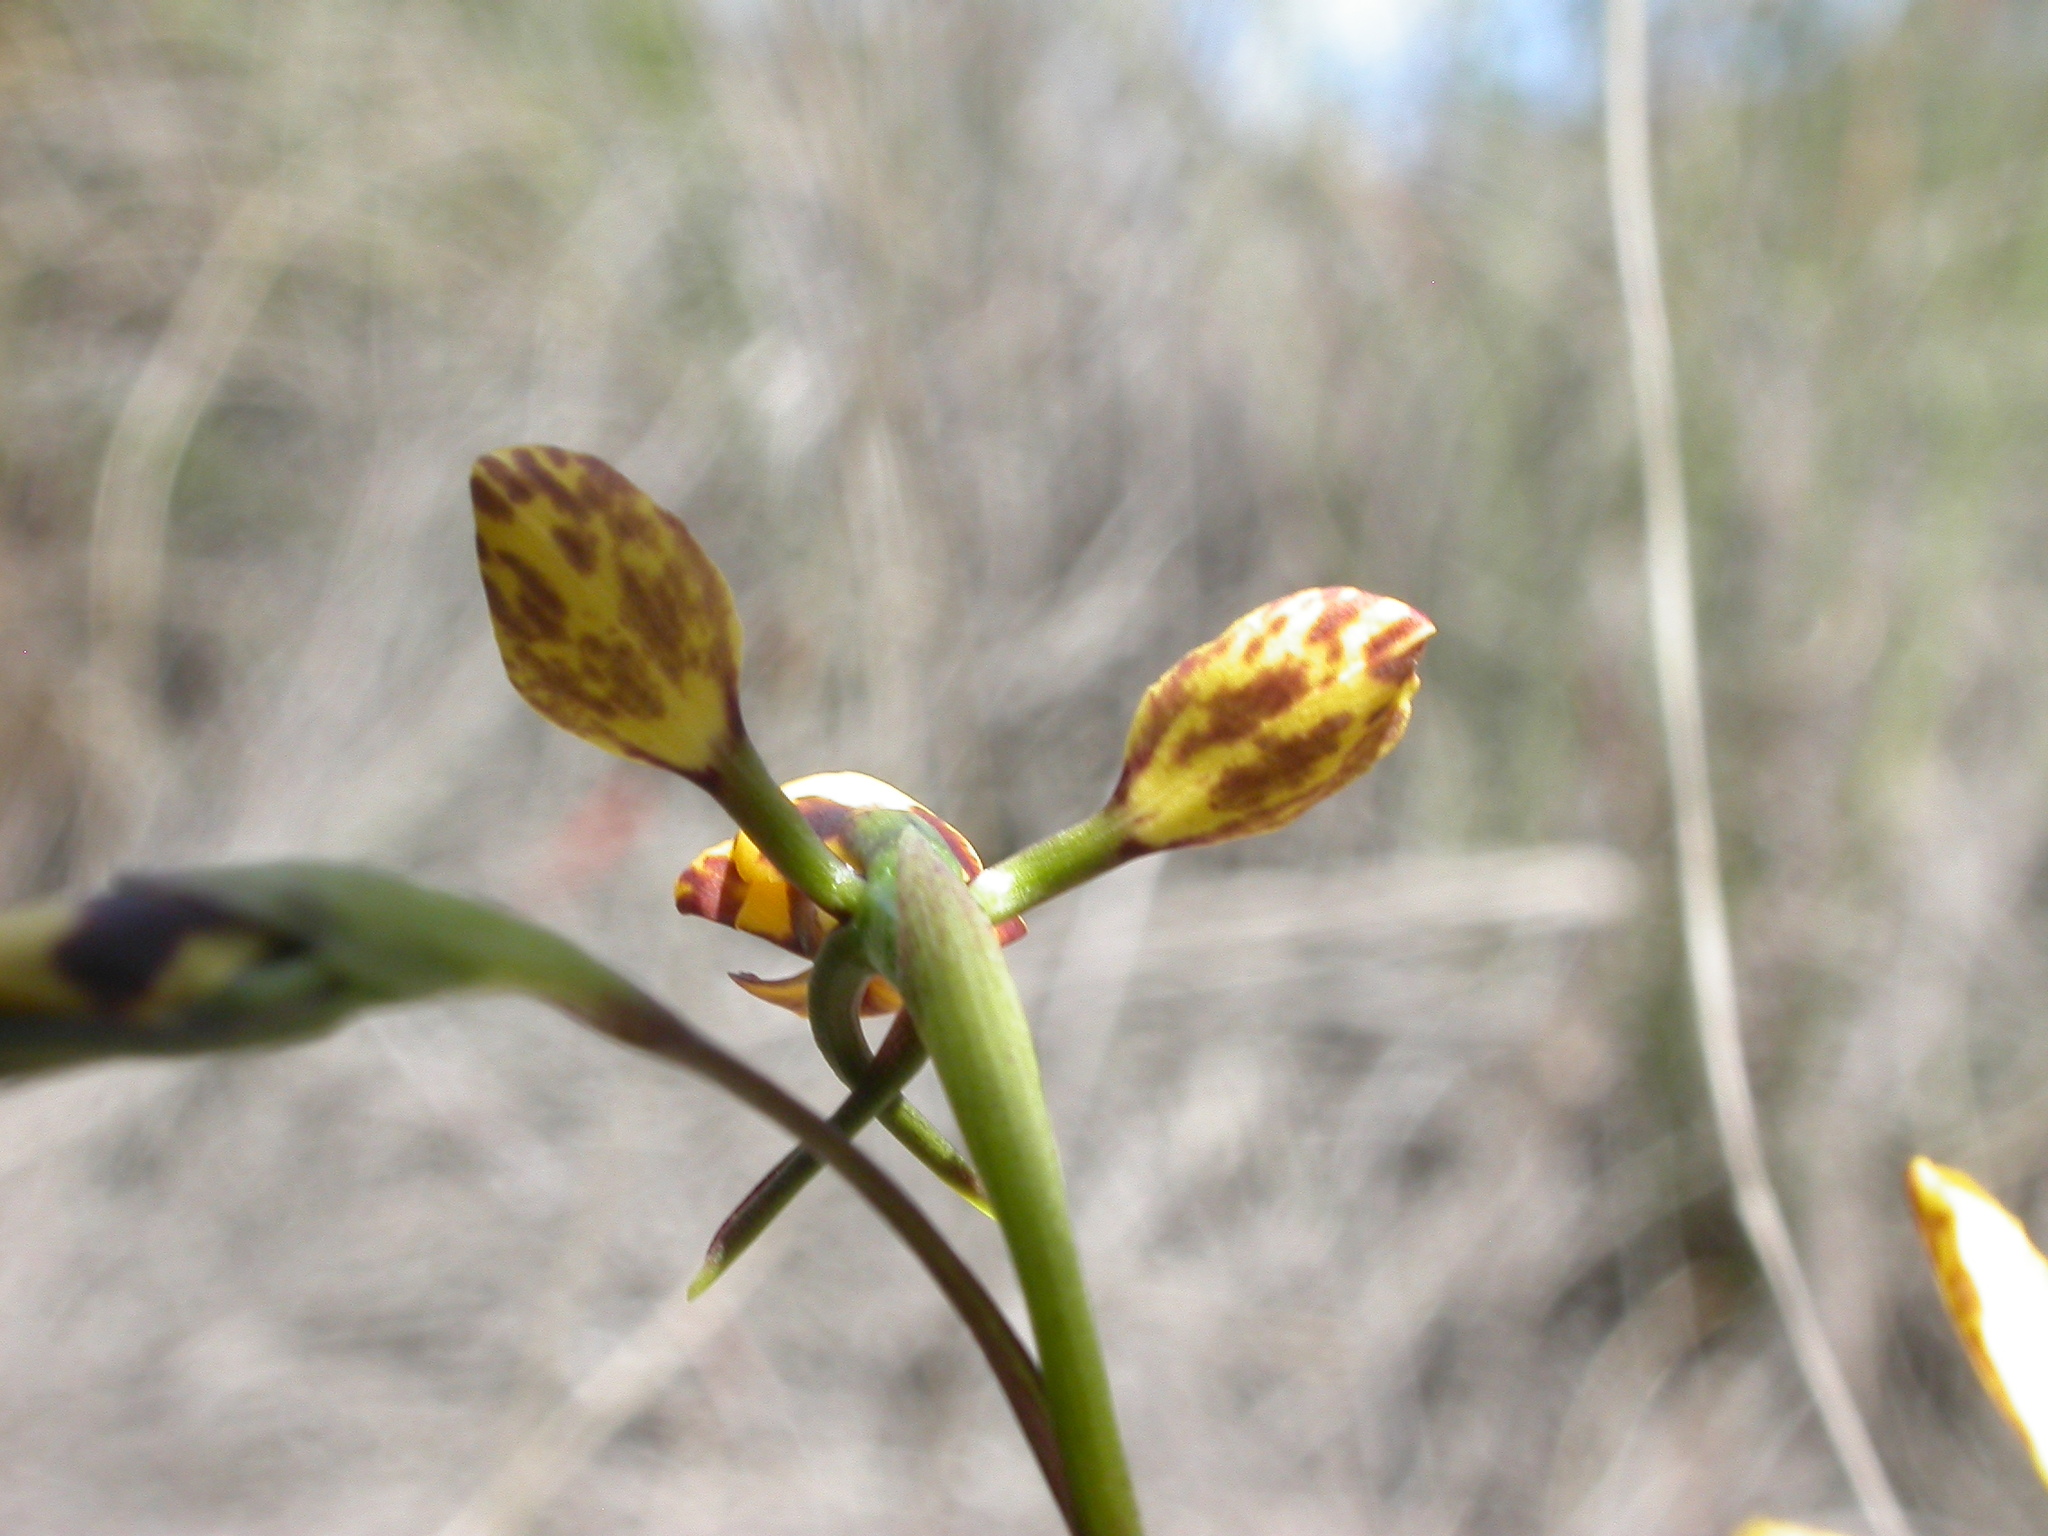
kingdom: Plantae
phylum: Tracheophyta
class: Liliopsida
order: Asparagales
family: Orchidaceae
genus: Diuris
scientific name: Diuris semilunulata
